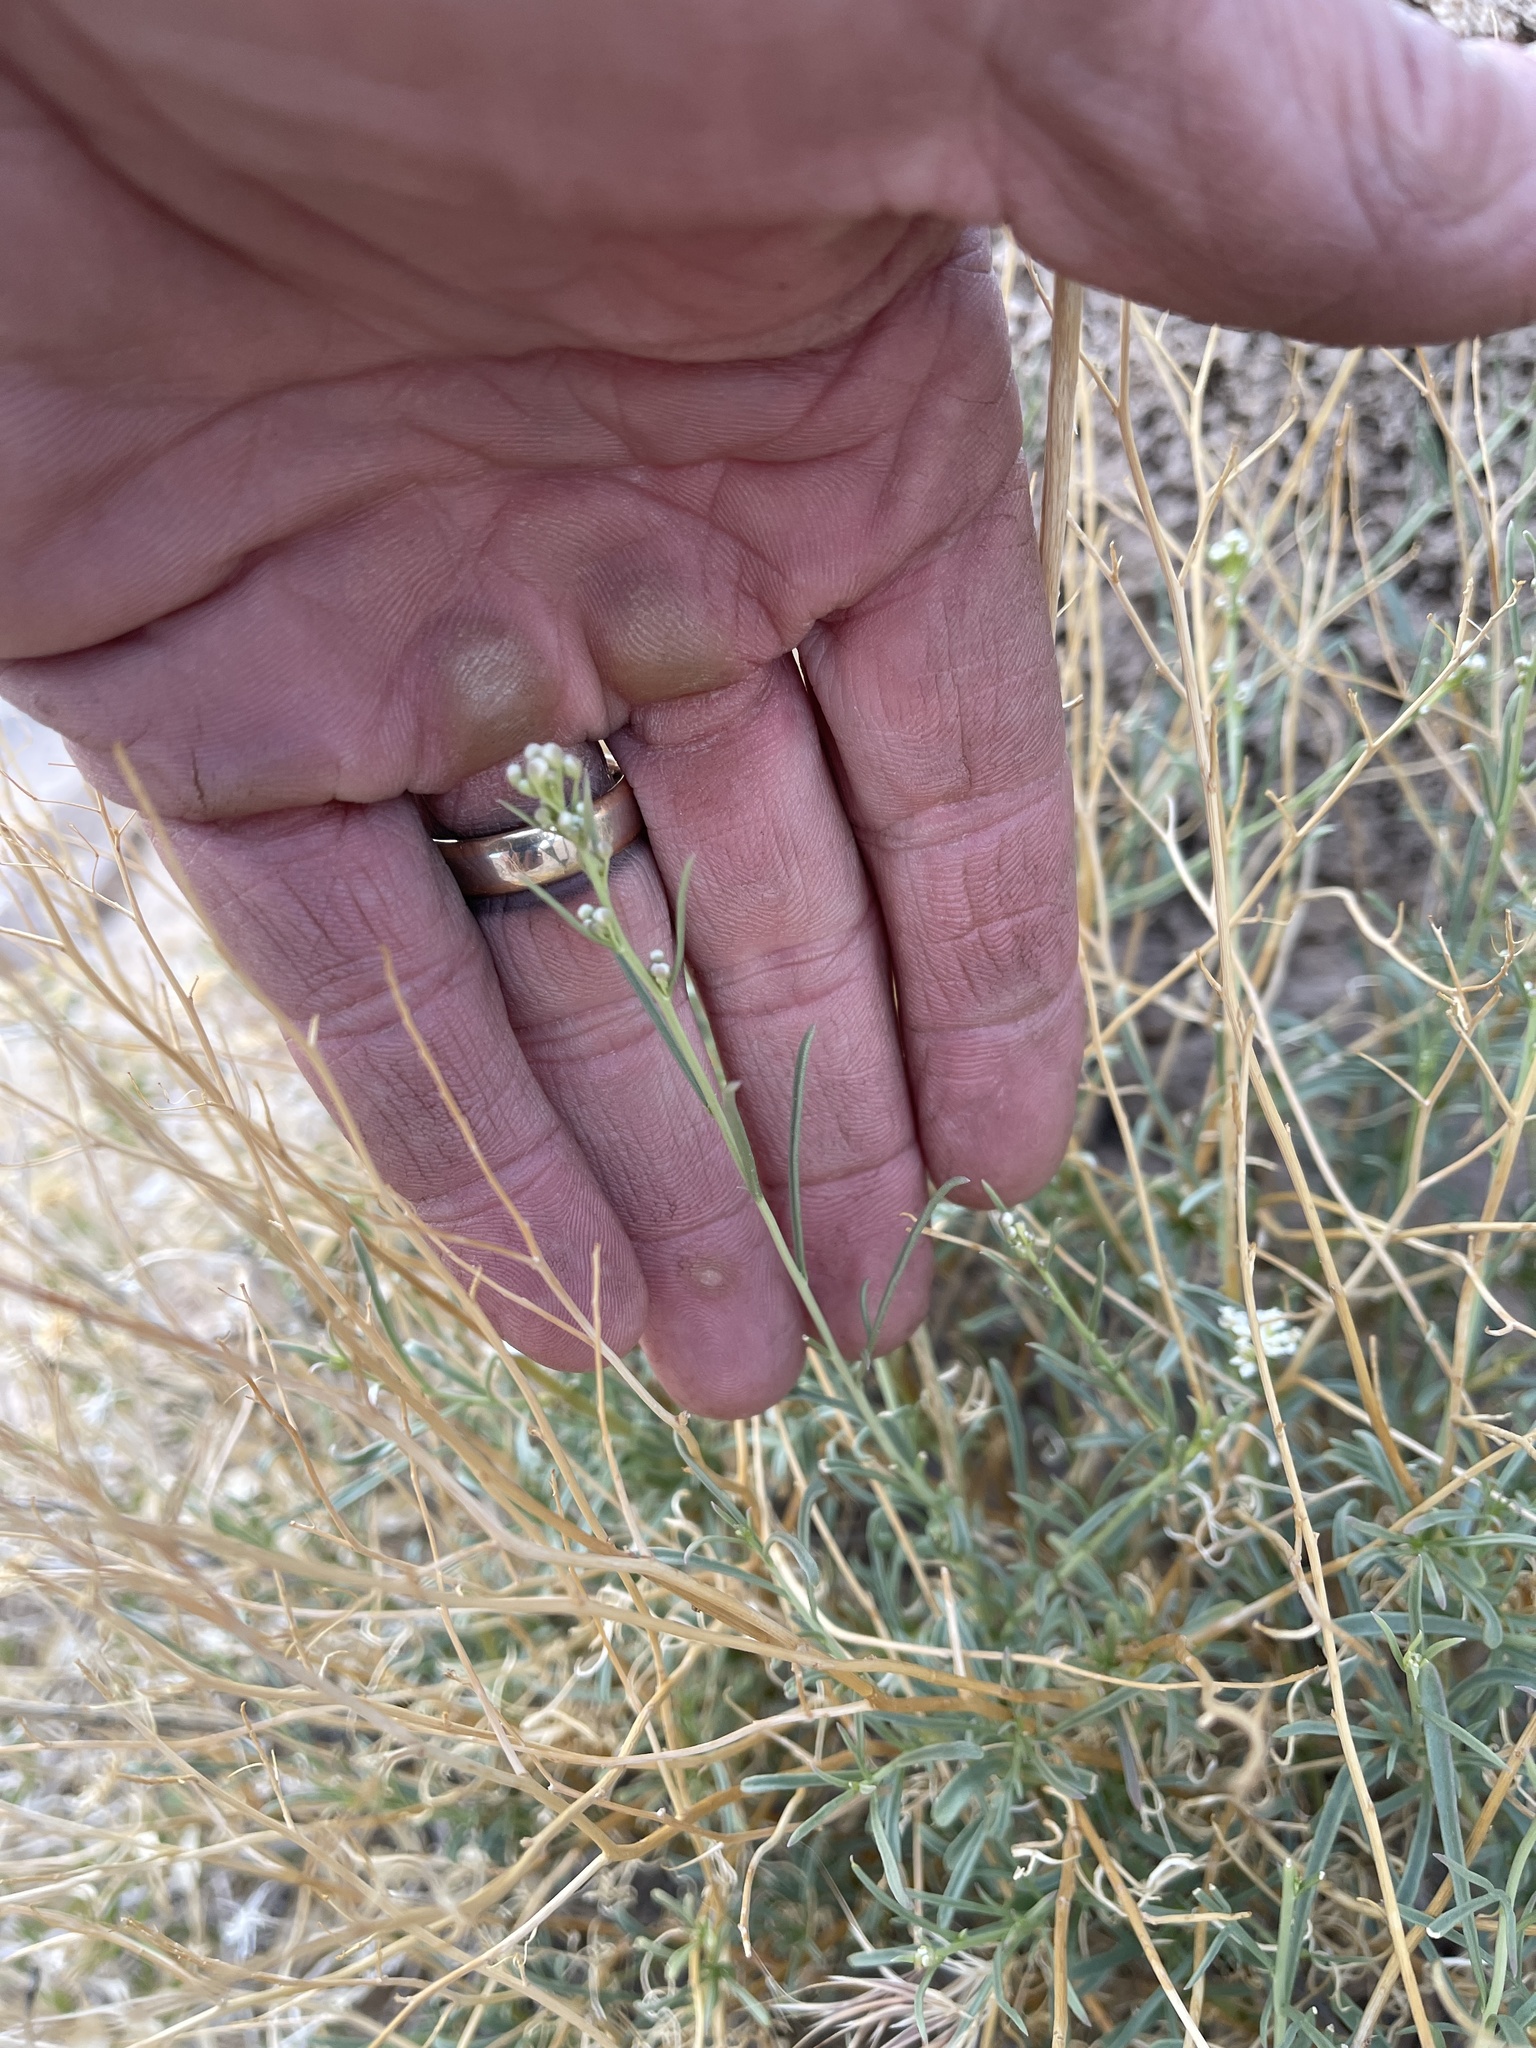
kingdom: Plantae
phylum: Tracheophyta
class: Magnoliopsida
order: Brassicales
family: Brassicaceae
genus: Lepidium
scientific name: Lepidium fremontii
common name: Fremont's pepperwort
